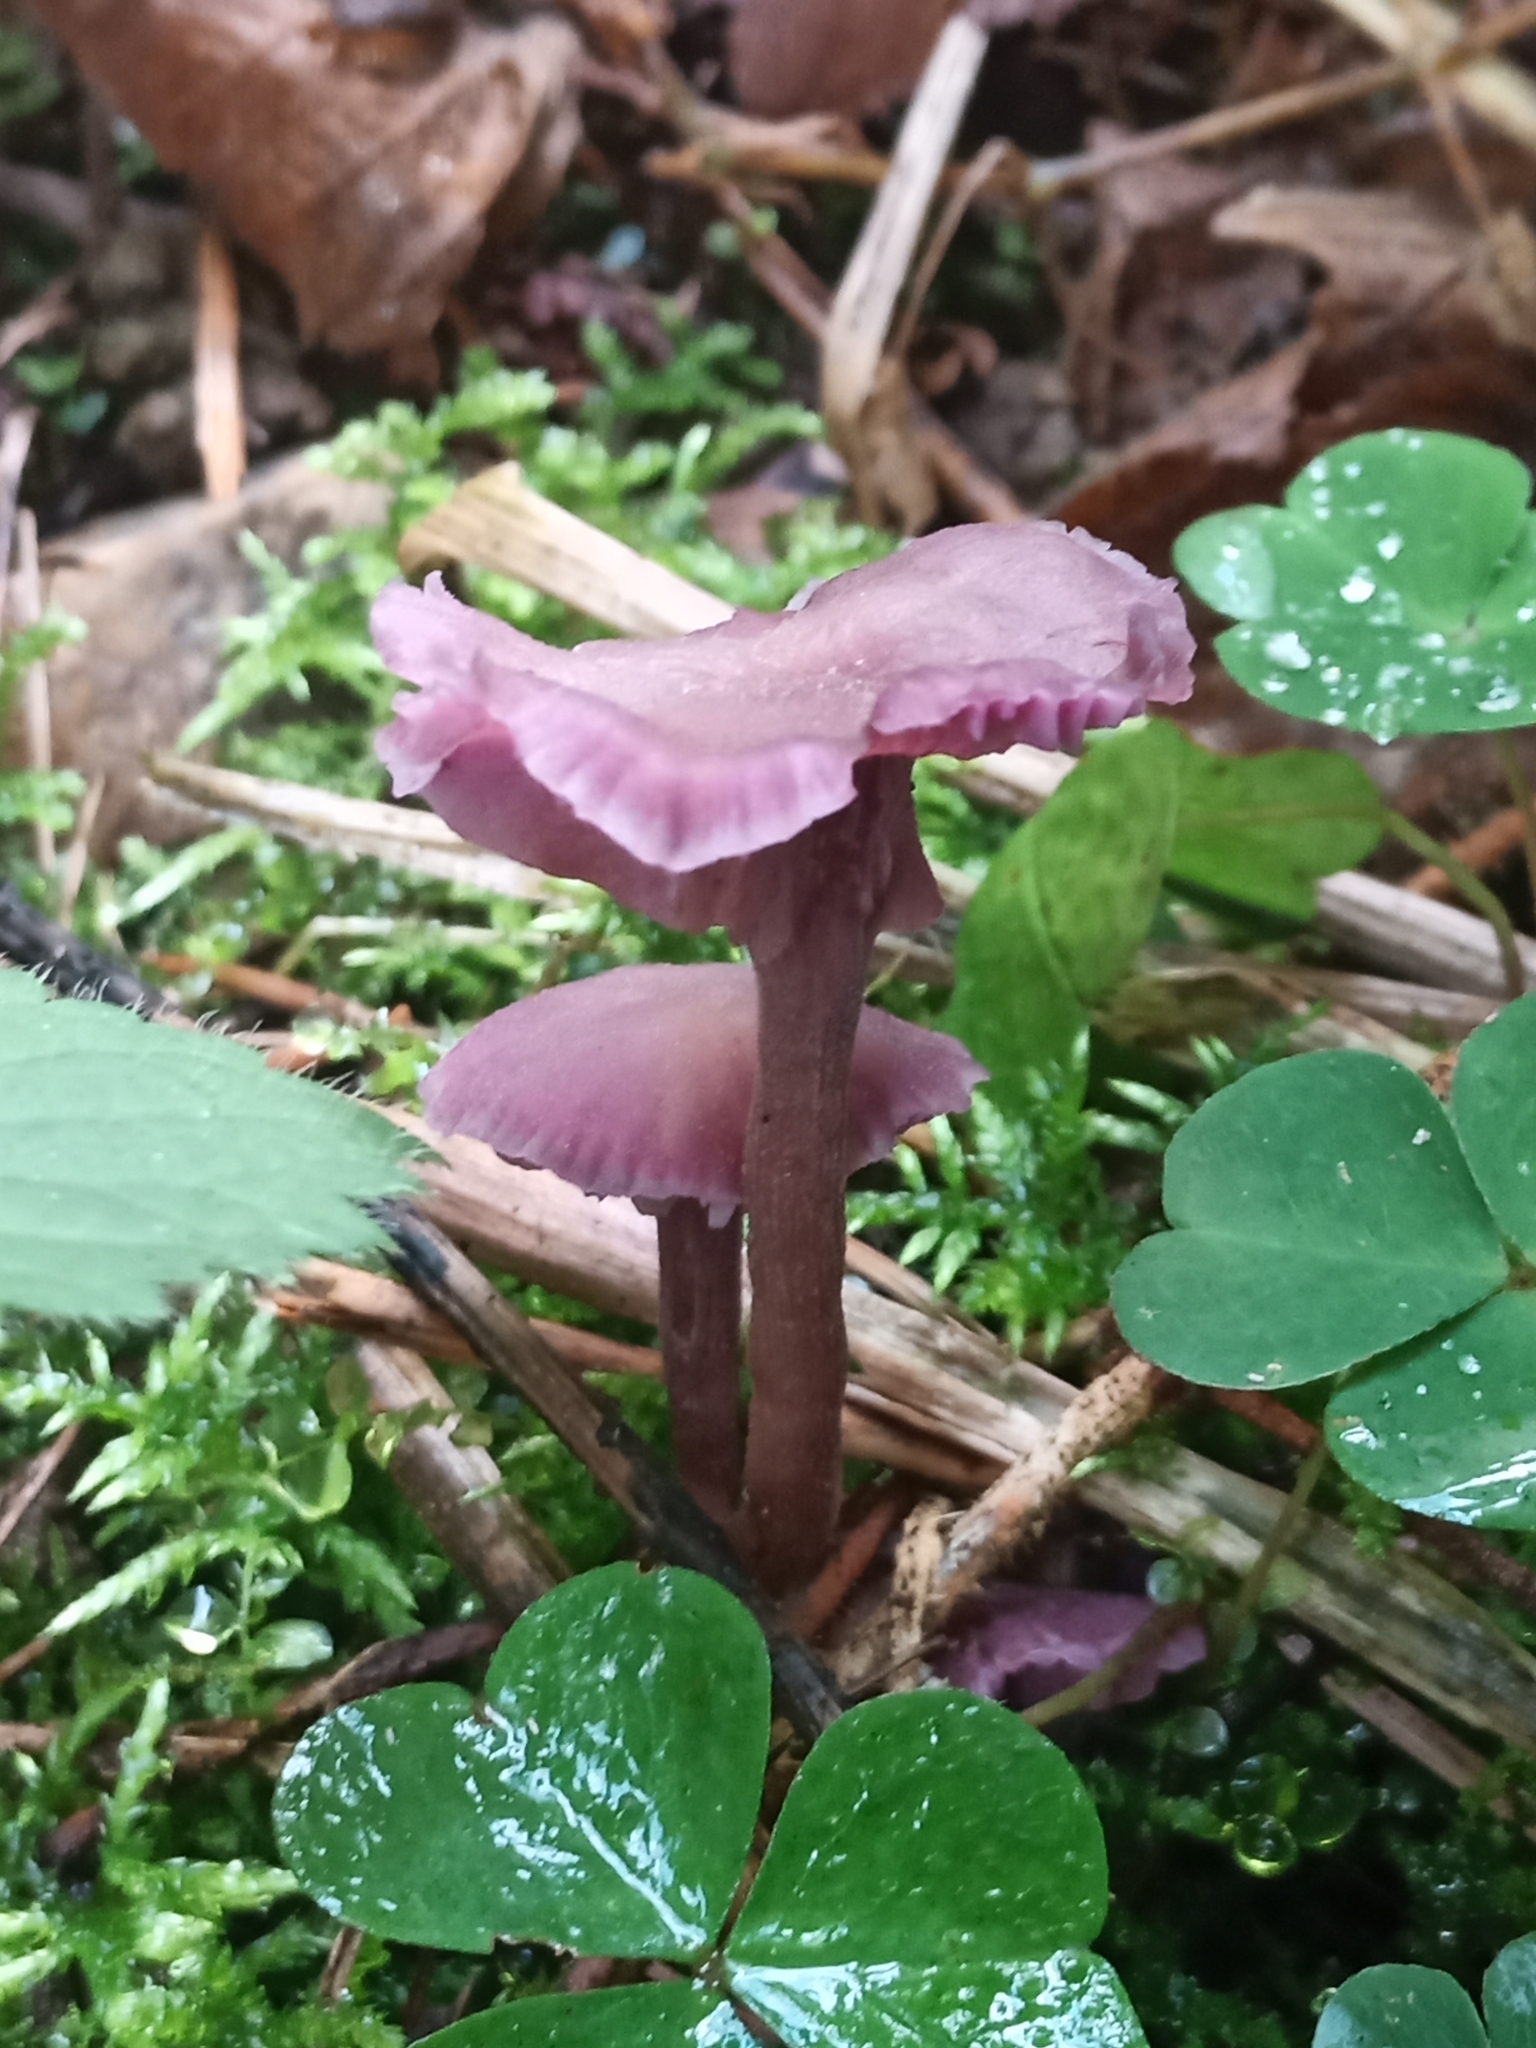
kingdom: Fungi
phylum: Basidiomycota
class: Agaricomycetes
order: Agaricales
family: Hydnangiaceae
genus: Laccaria
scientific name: Laccaria amethystina
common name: Amethyst deceiver
